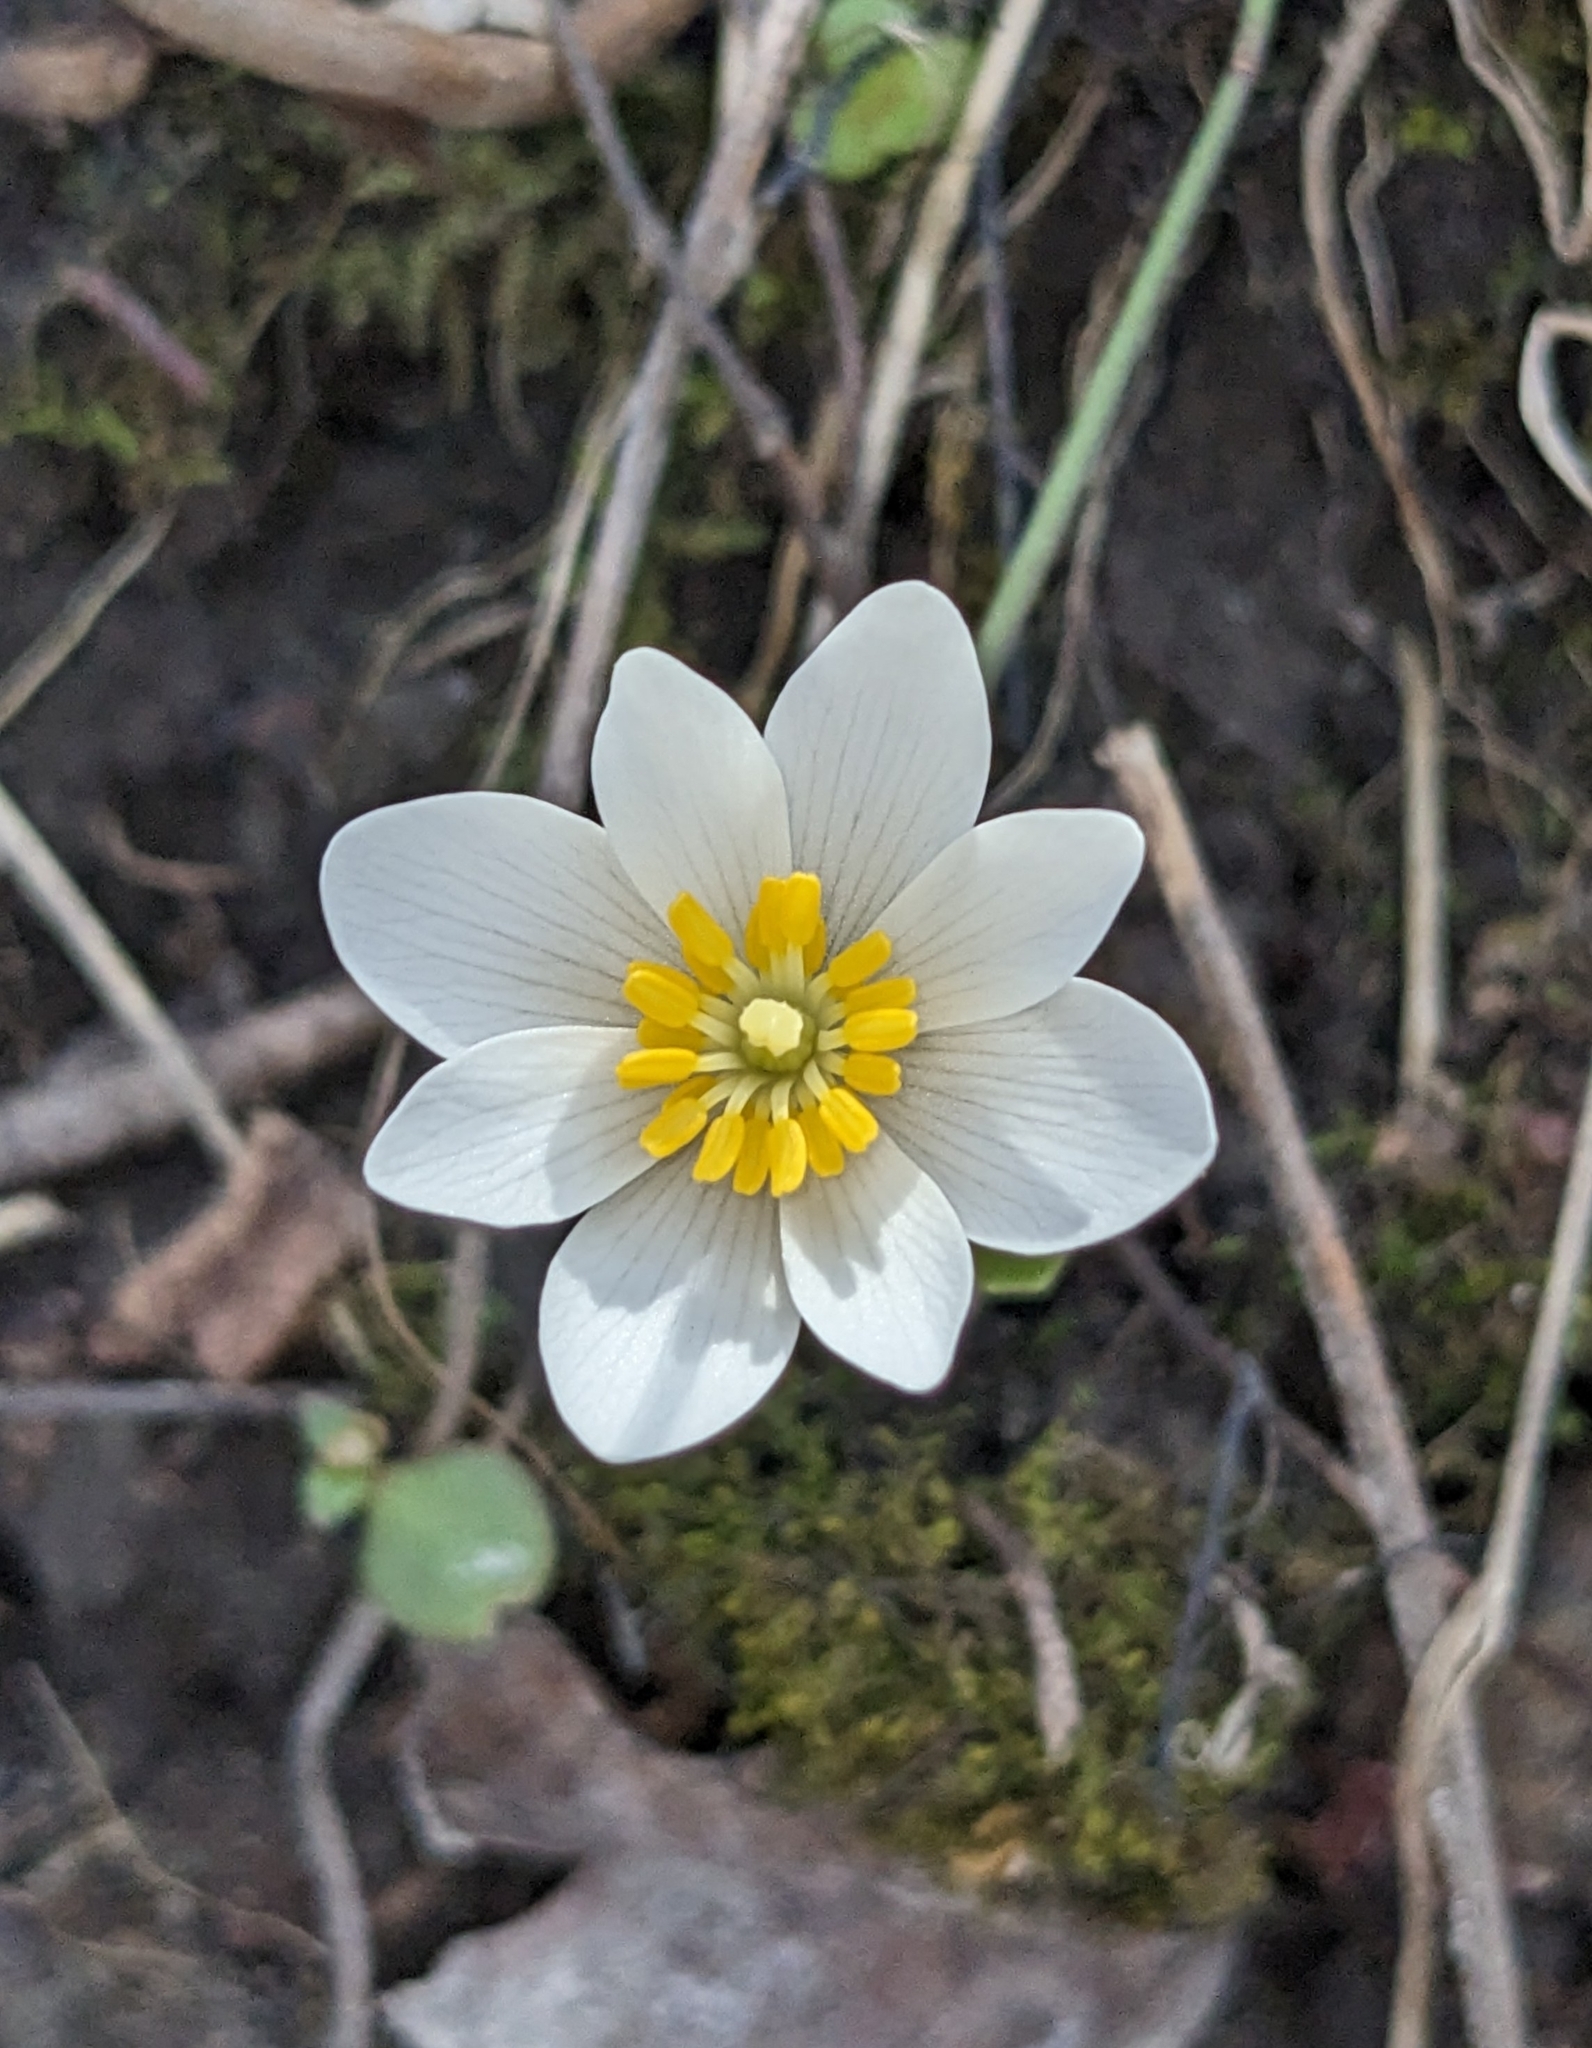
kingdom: Plantae
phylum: Tracheophyta
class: Magnoliopsida
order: Ranunculales
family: Papaveraceae
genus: Sanguinaria
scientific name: Sanguinaria canadensis
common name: Bloodroot
